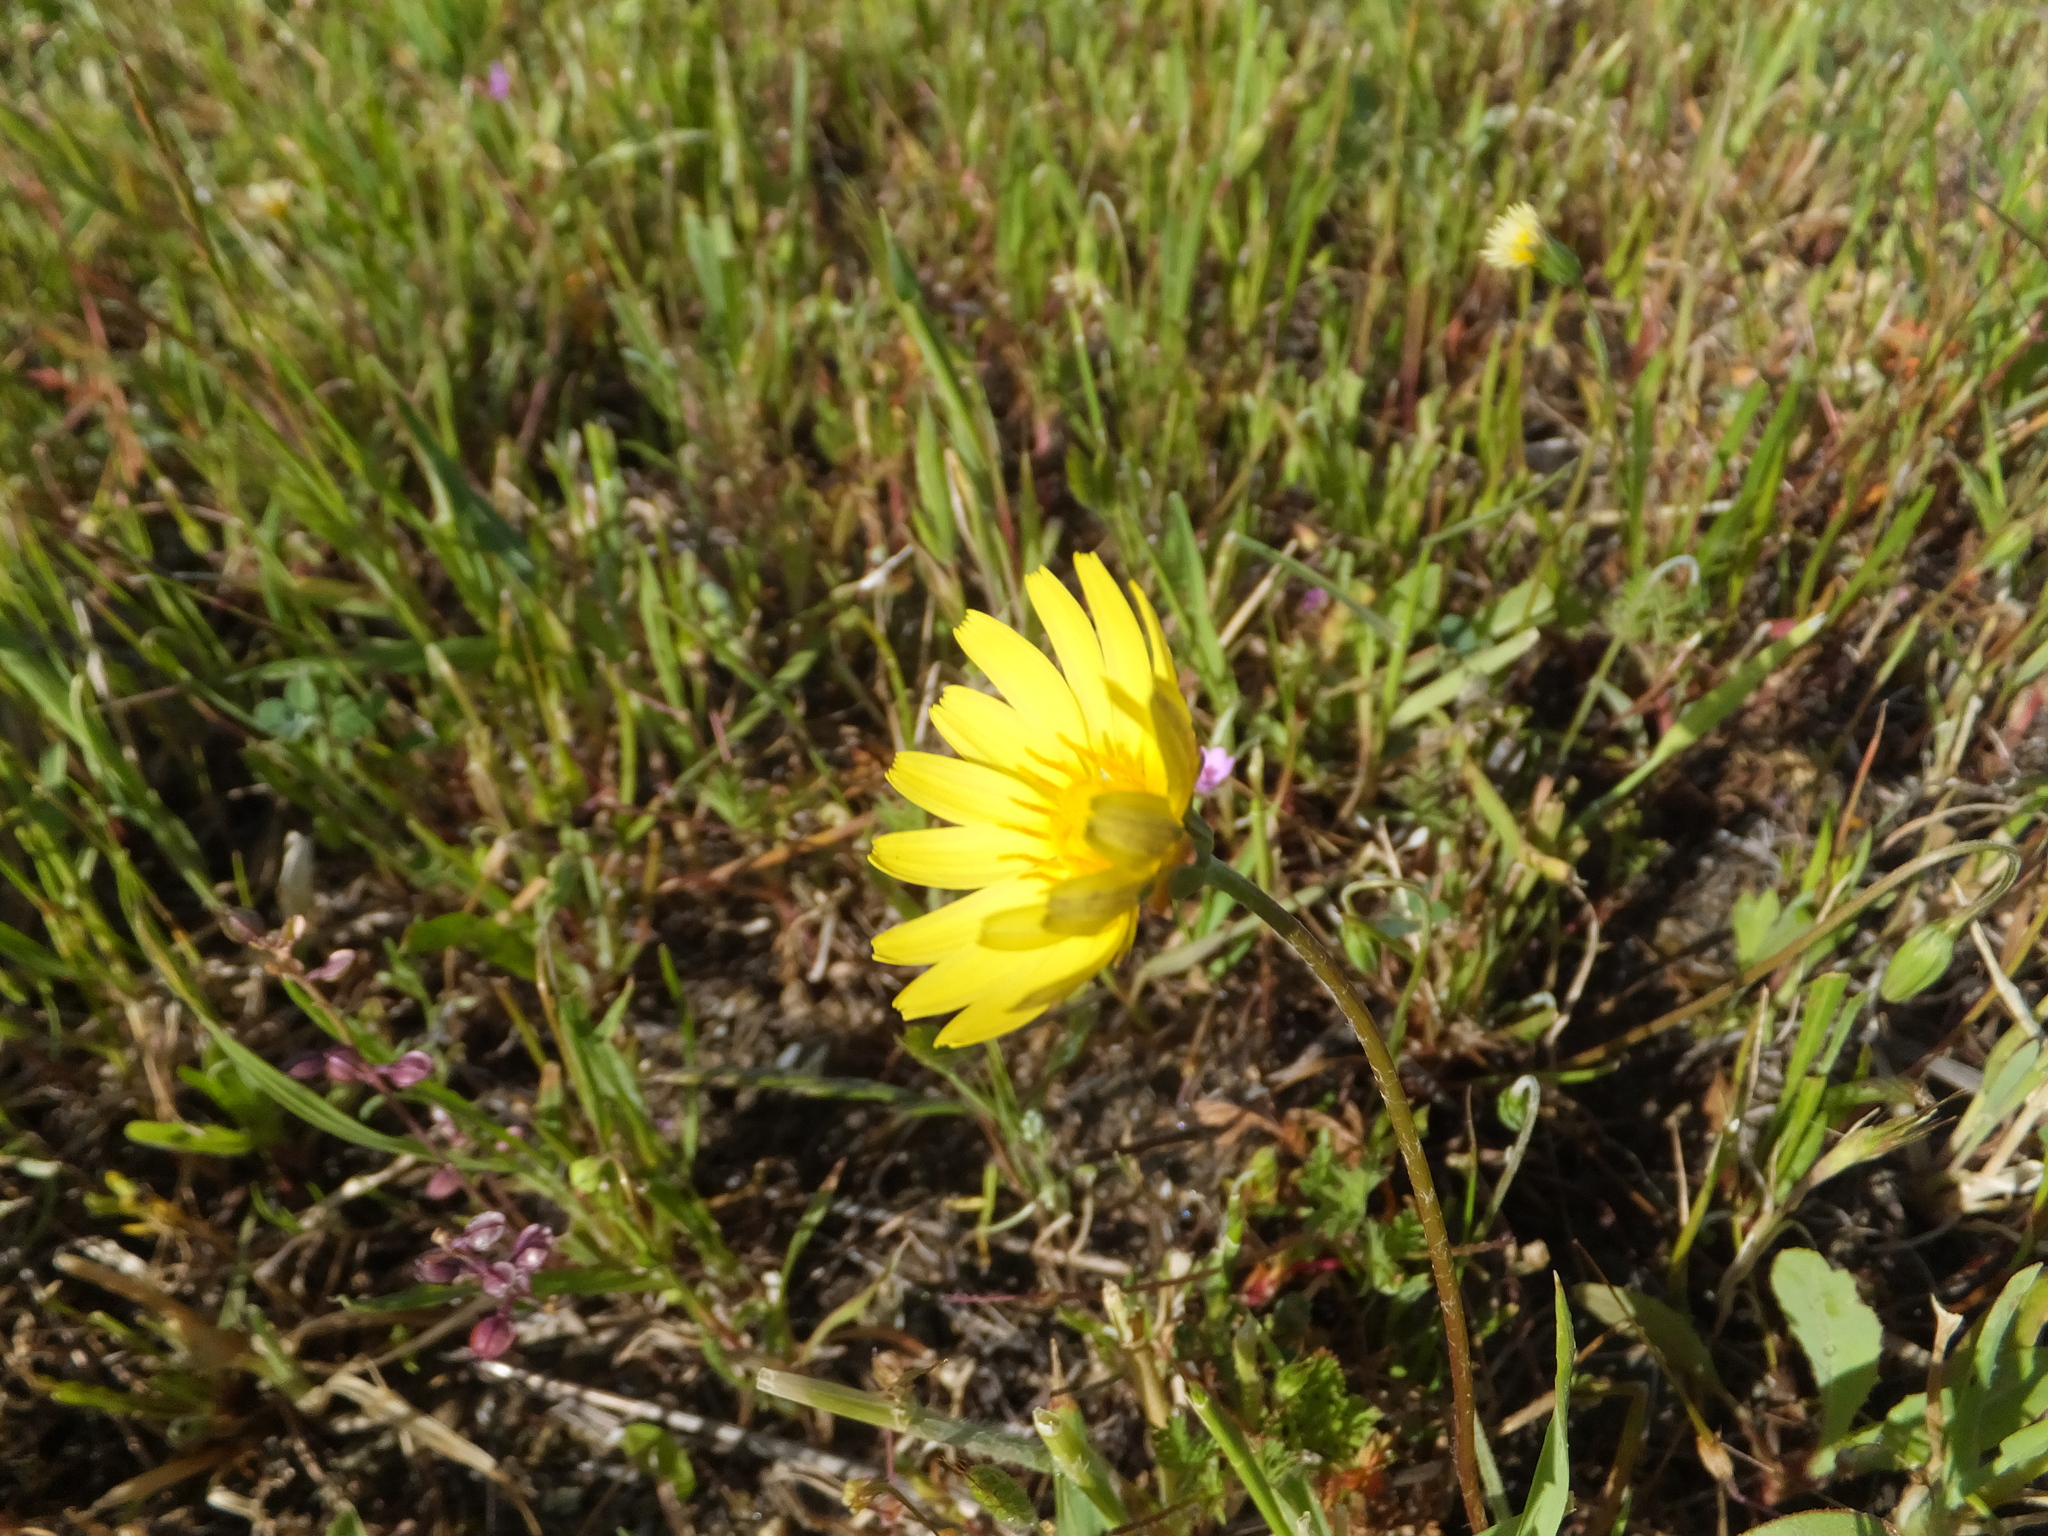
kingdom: Plantae
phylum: Tracheophyta
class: Magnoliopsida
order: Asterales
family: Asteraceae
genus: Agoseris
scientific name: Agoseris heterophylla
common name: Annual agoseris
